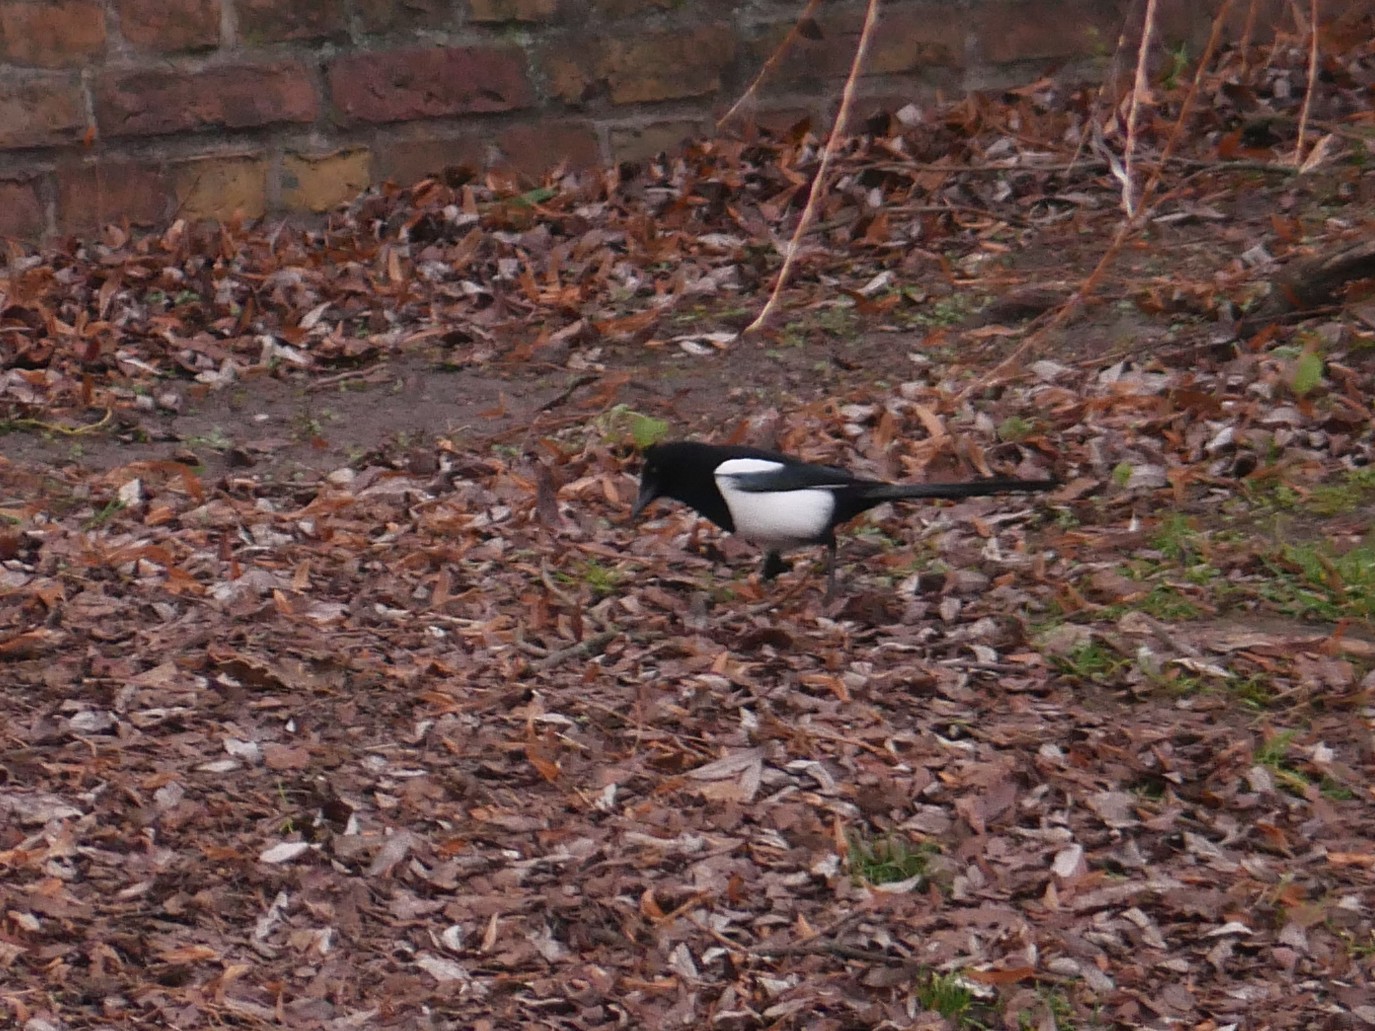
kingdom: Animalia
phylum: Chordata
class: Aves
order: Passeriformes
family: Corvidae
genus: Pica
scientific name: Pica pica
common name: Eurasian magpie
